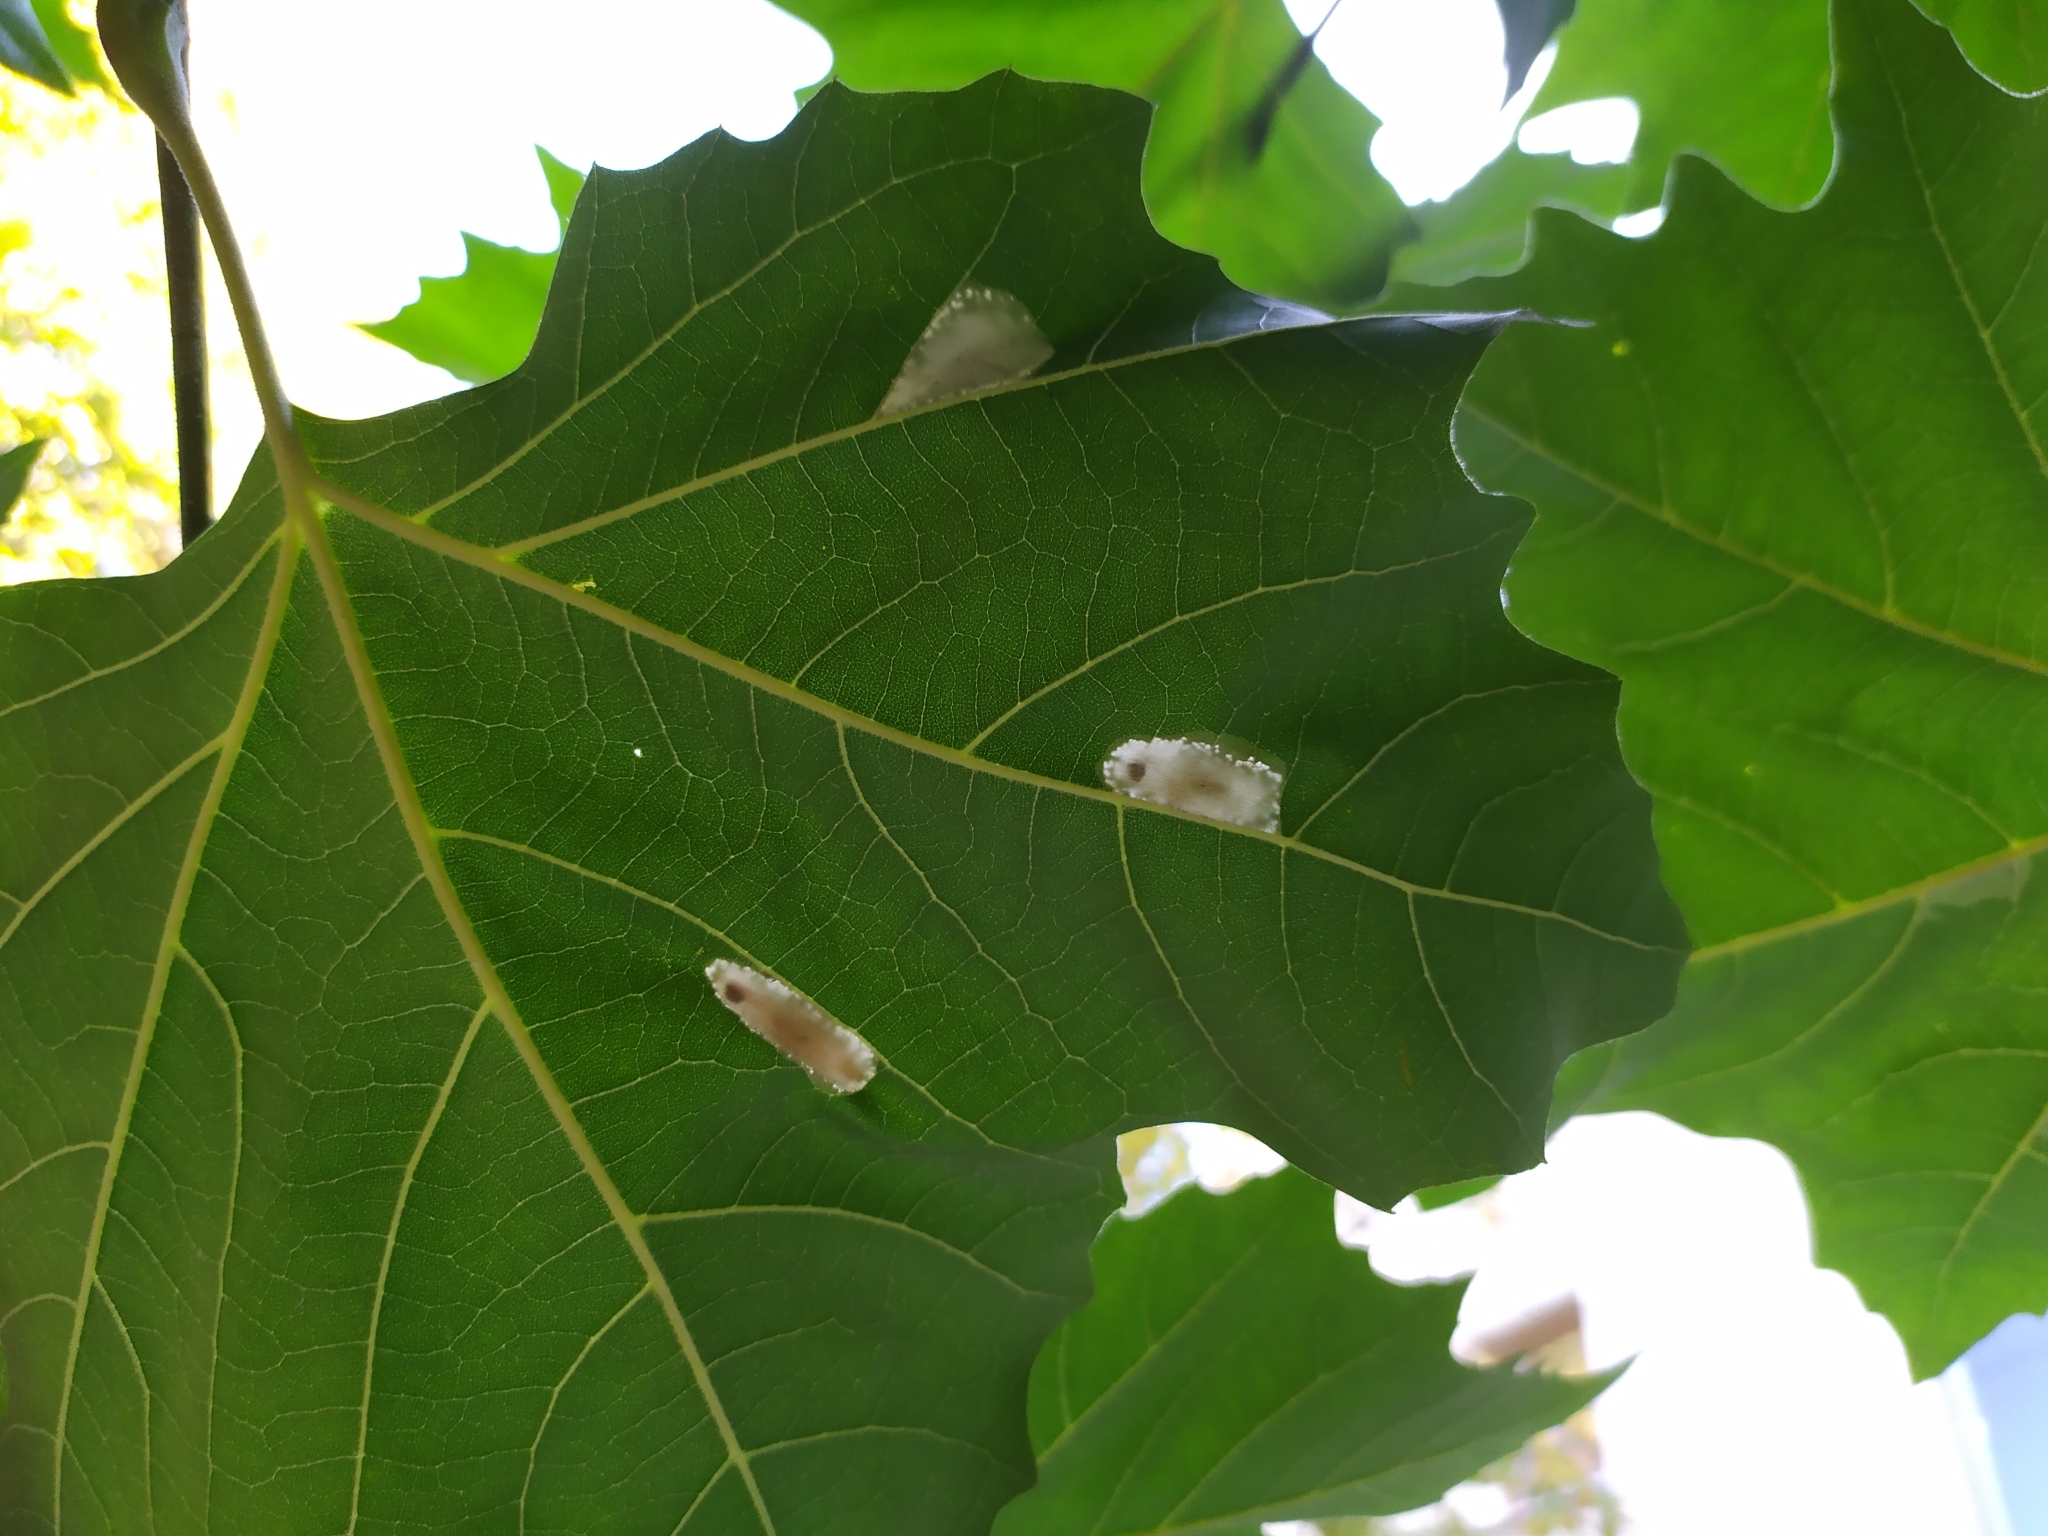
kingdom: Animalia
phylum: Arthropoda
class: Insecta
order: Lepidoptera
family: Gracillariidae
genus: Phyllonorycter
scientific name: Phyllonorycter platani
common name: London midget
